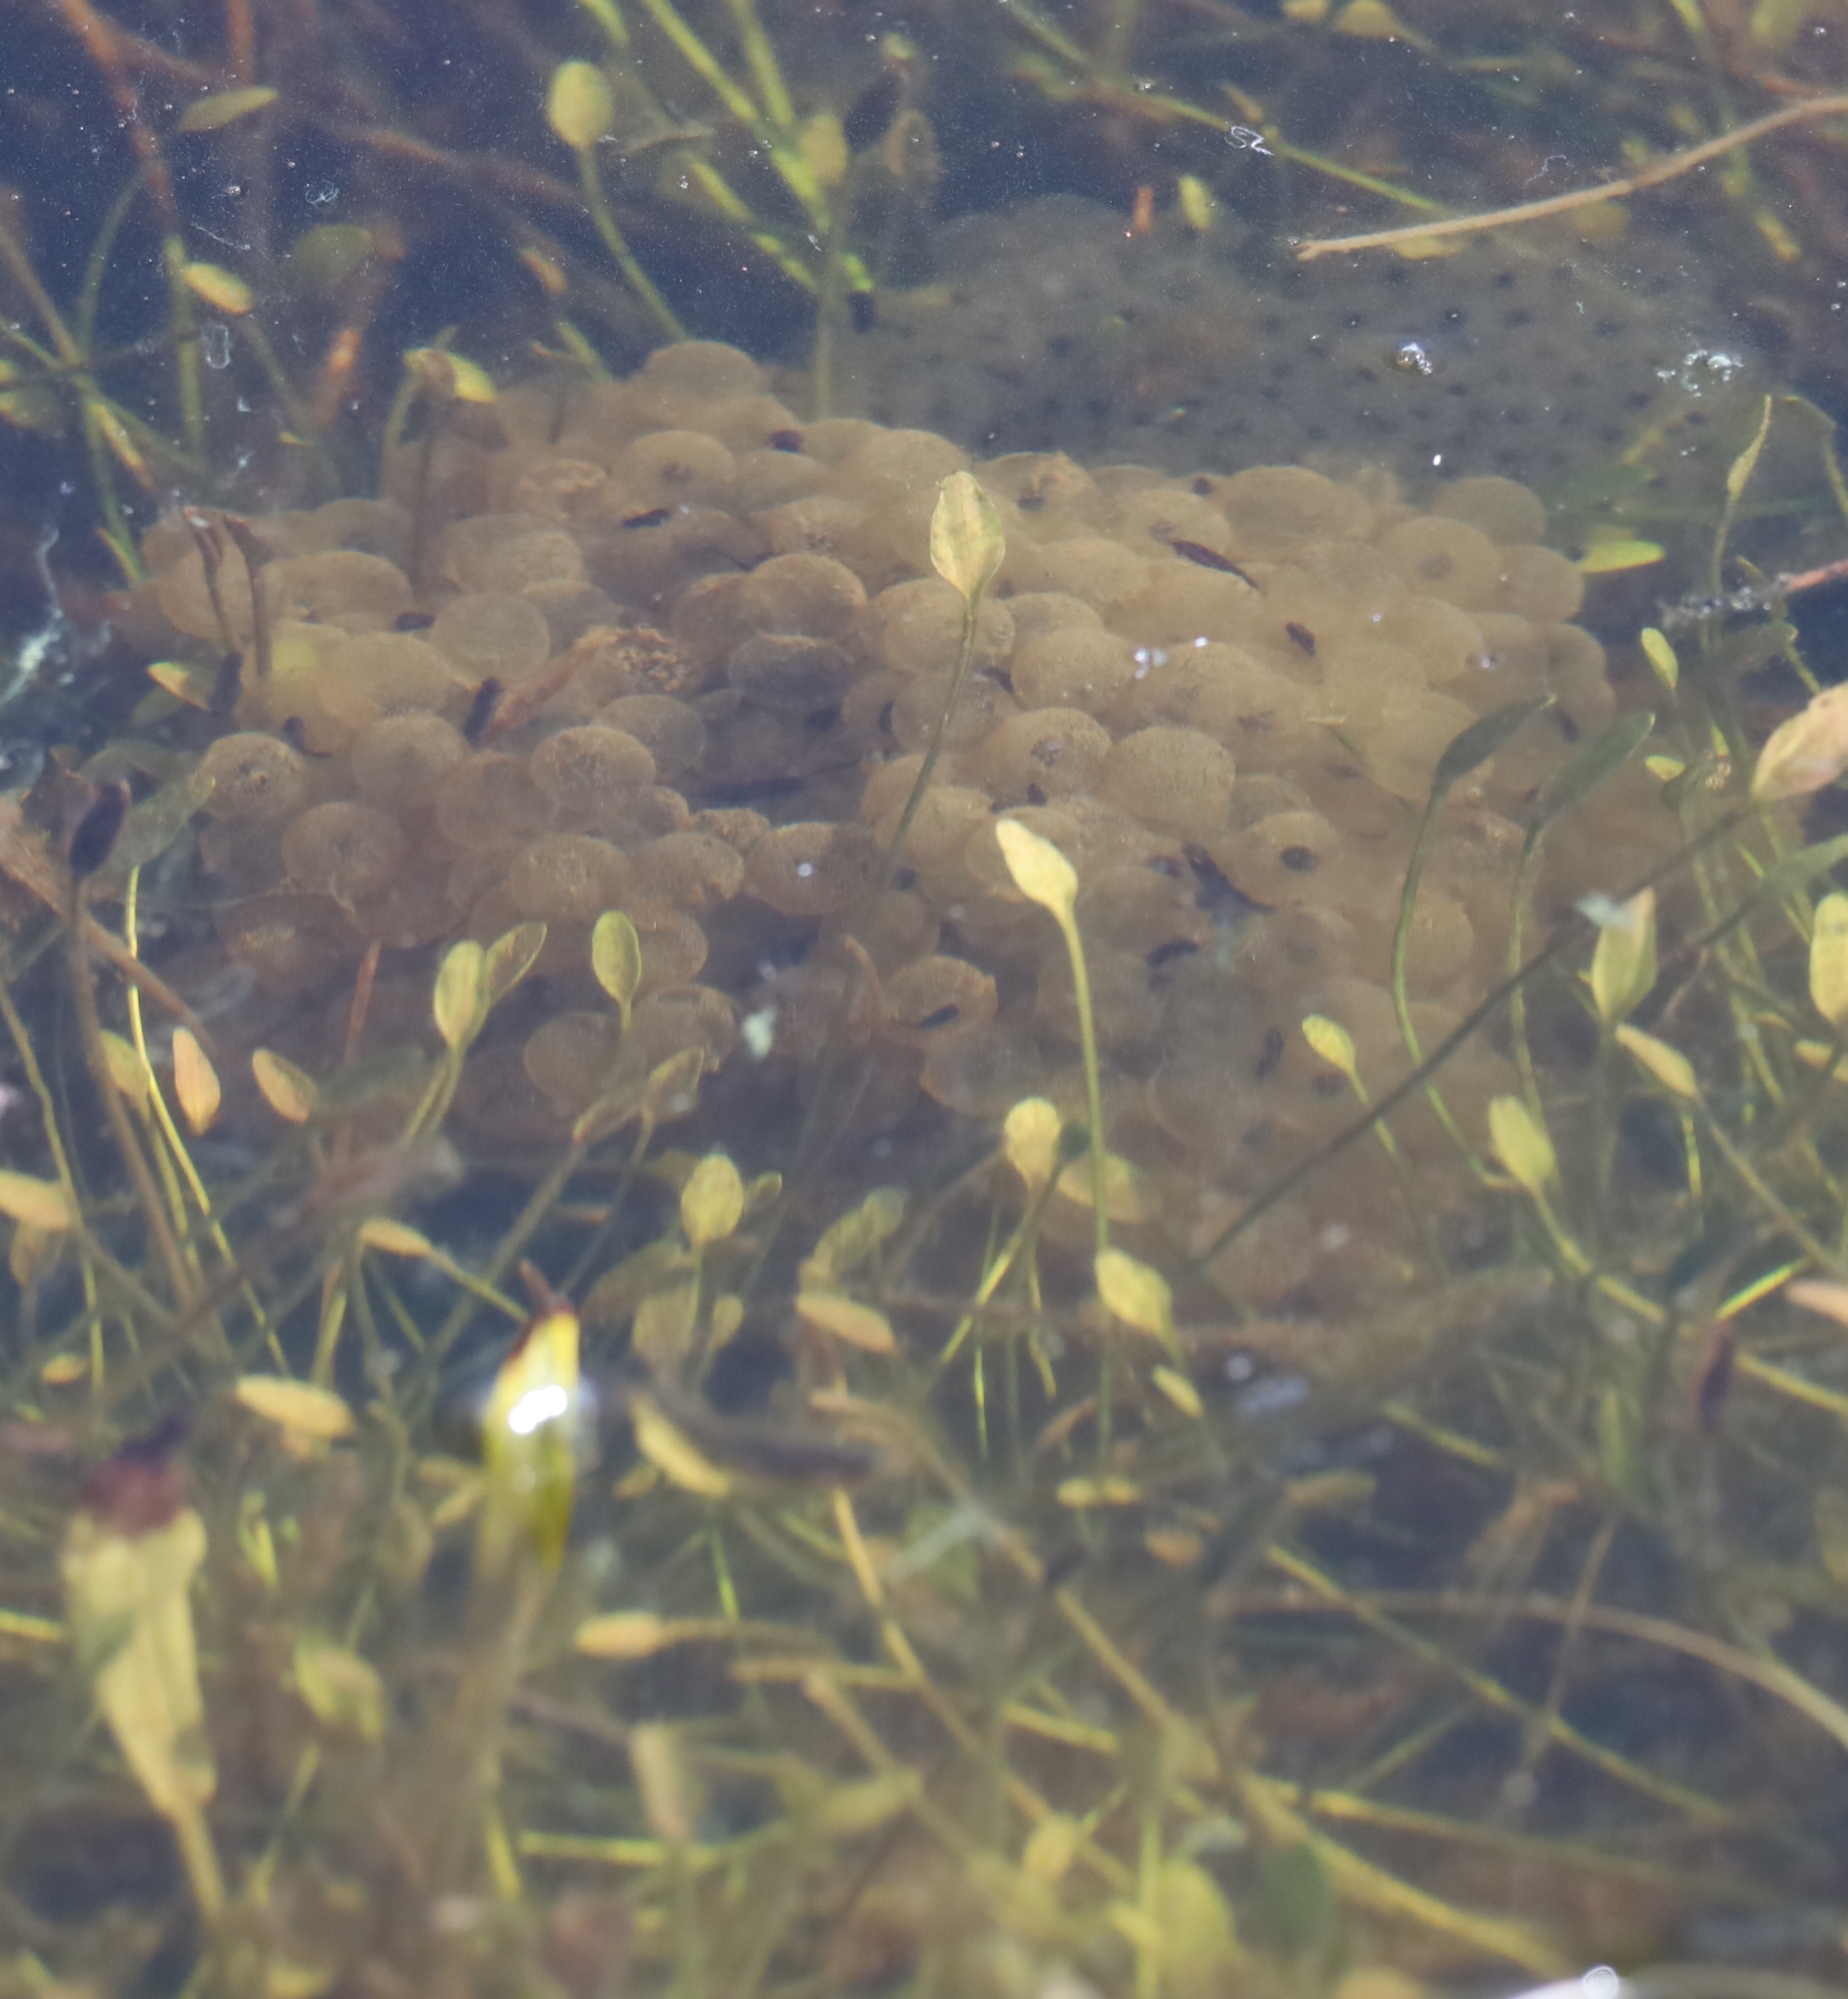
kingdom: Animalia
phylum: Chordata
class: Amphibia
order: Anura
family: Ranidae
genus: Rana
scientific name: Rana temporaria
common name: Common frog
